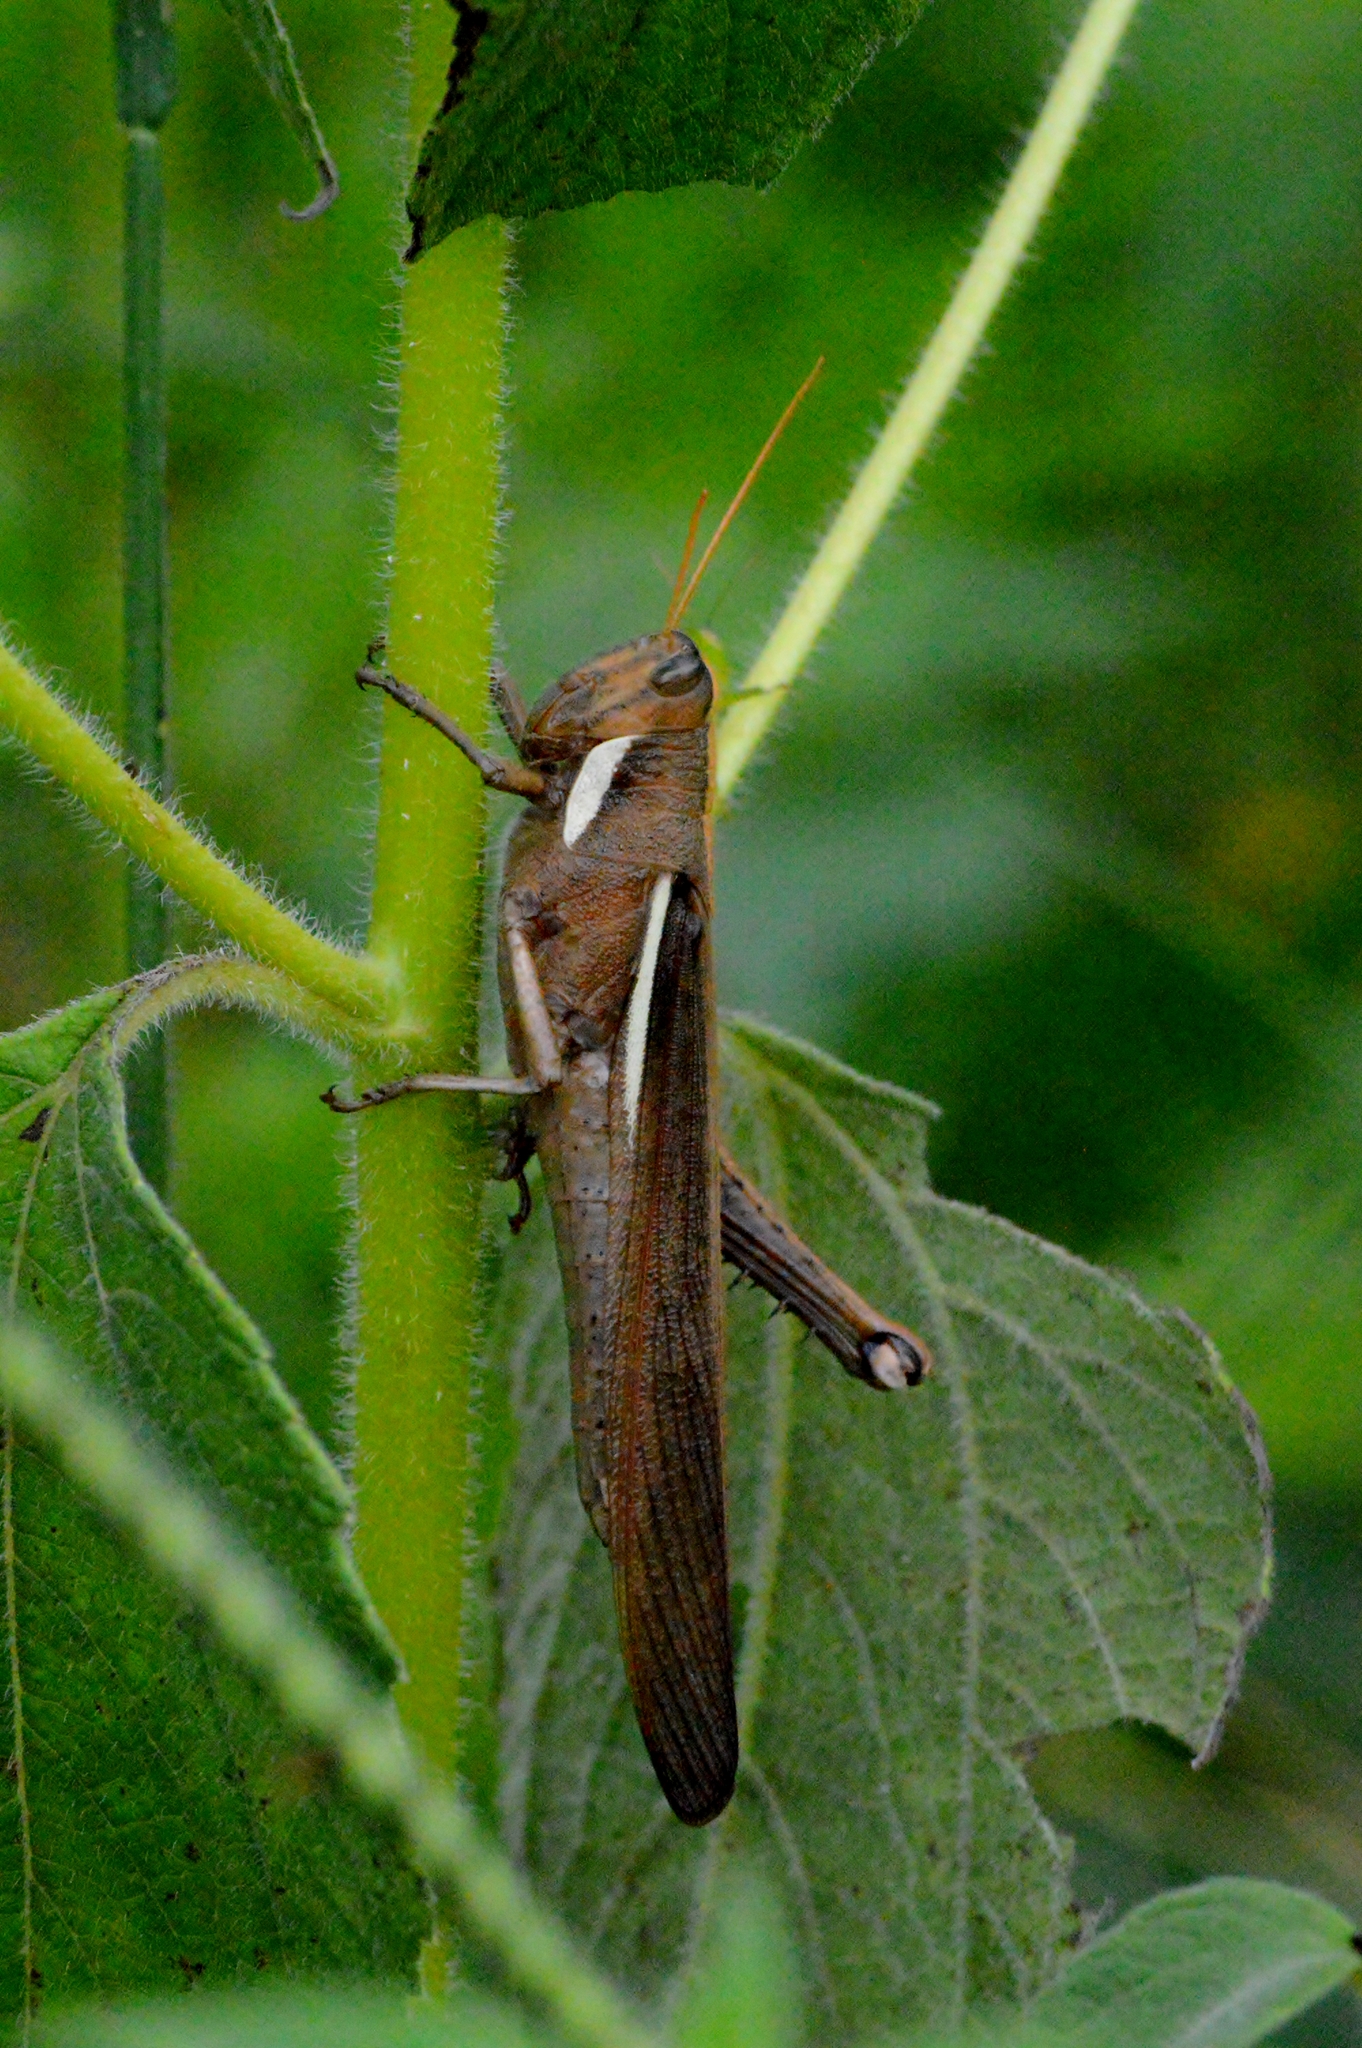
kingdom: Animalia
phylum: Arthropoda
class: Insecta
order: Orthoptera
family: Acrididae
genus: Schistocerca
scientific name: Schistocerca flavofasciata
